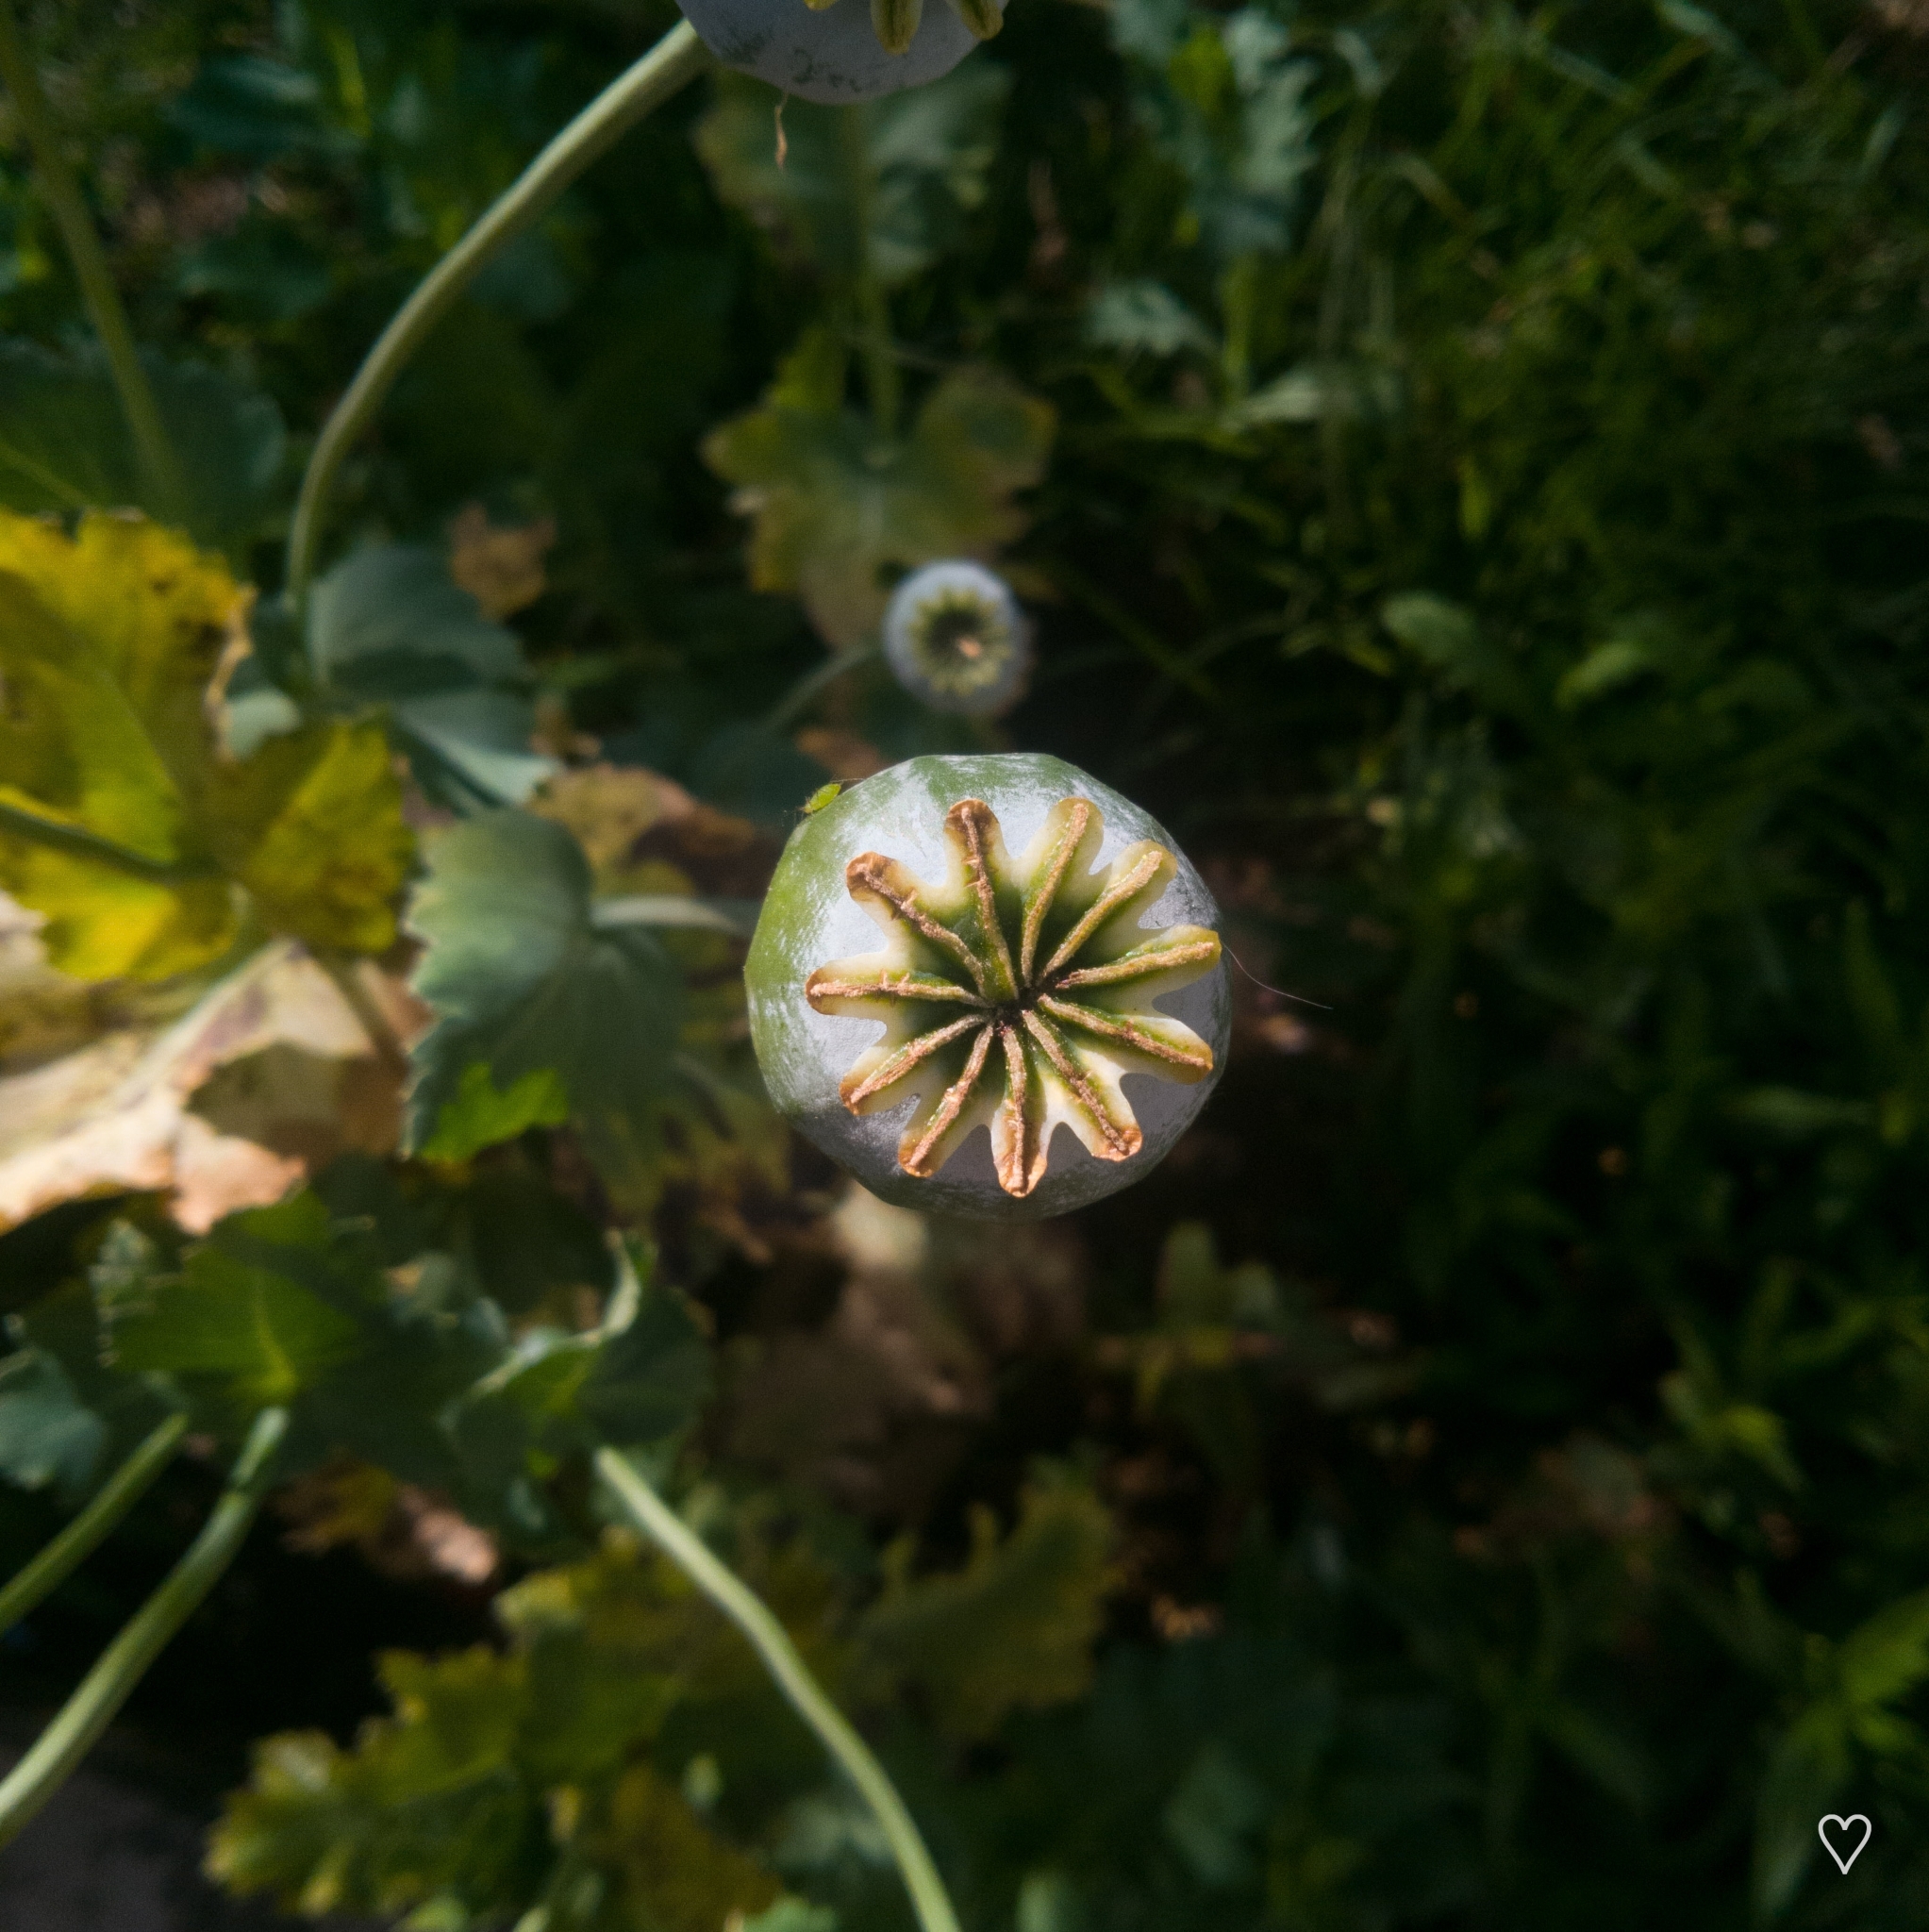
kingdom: Plantae
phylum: Tracheophyta
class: Magnoliopsida
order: Ranunculales
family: Papaveraceae
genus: Papaver
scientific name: Papaver somniferum
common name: Opium poppy
